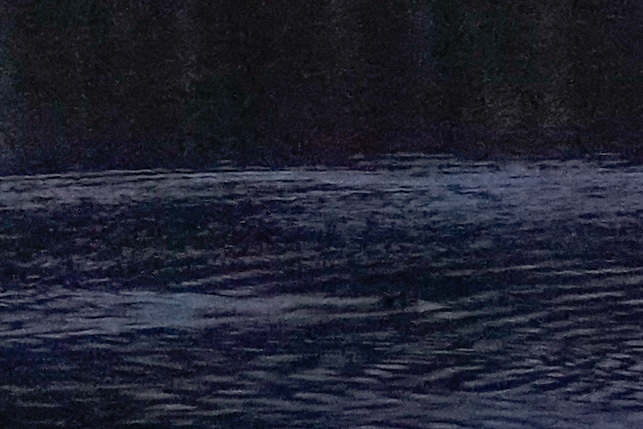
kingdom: Animalia
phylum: Chordata
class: Mammalia
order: Rodentia
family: Castoridae
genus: Castor
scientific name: Castor canadensis
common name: American beaver
